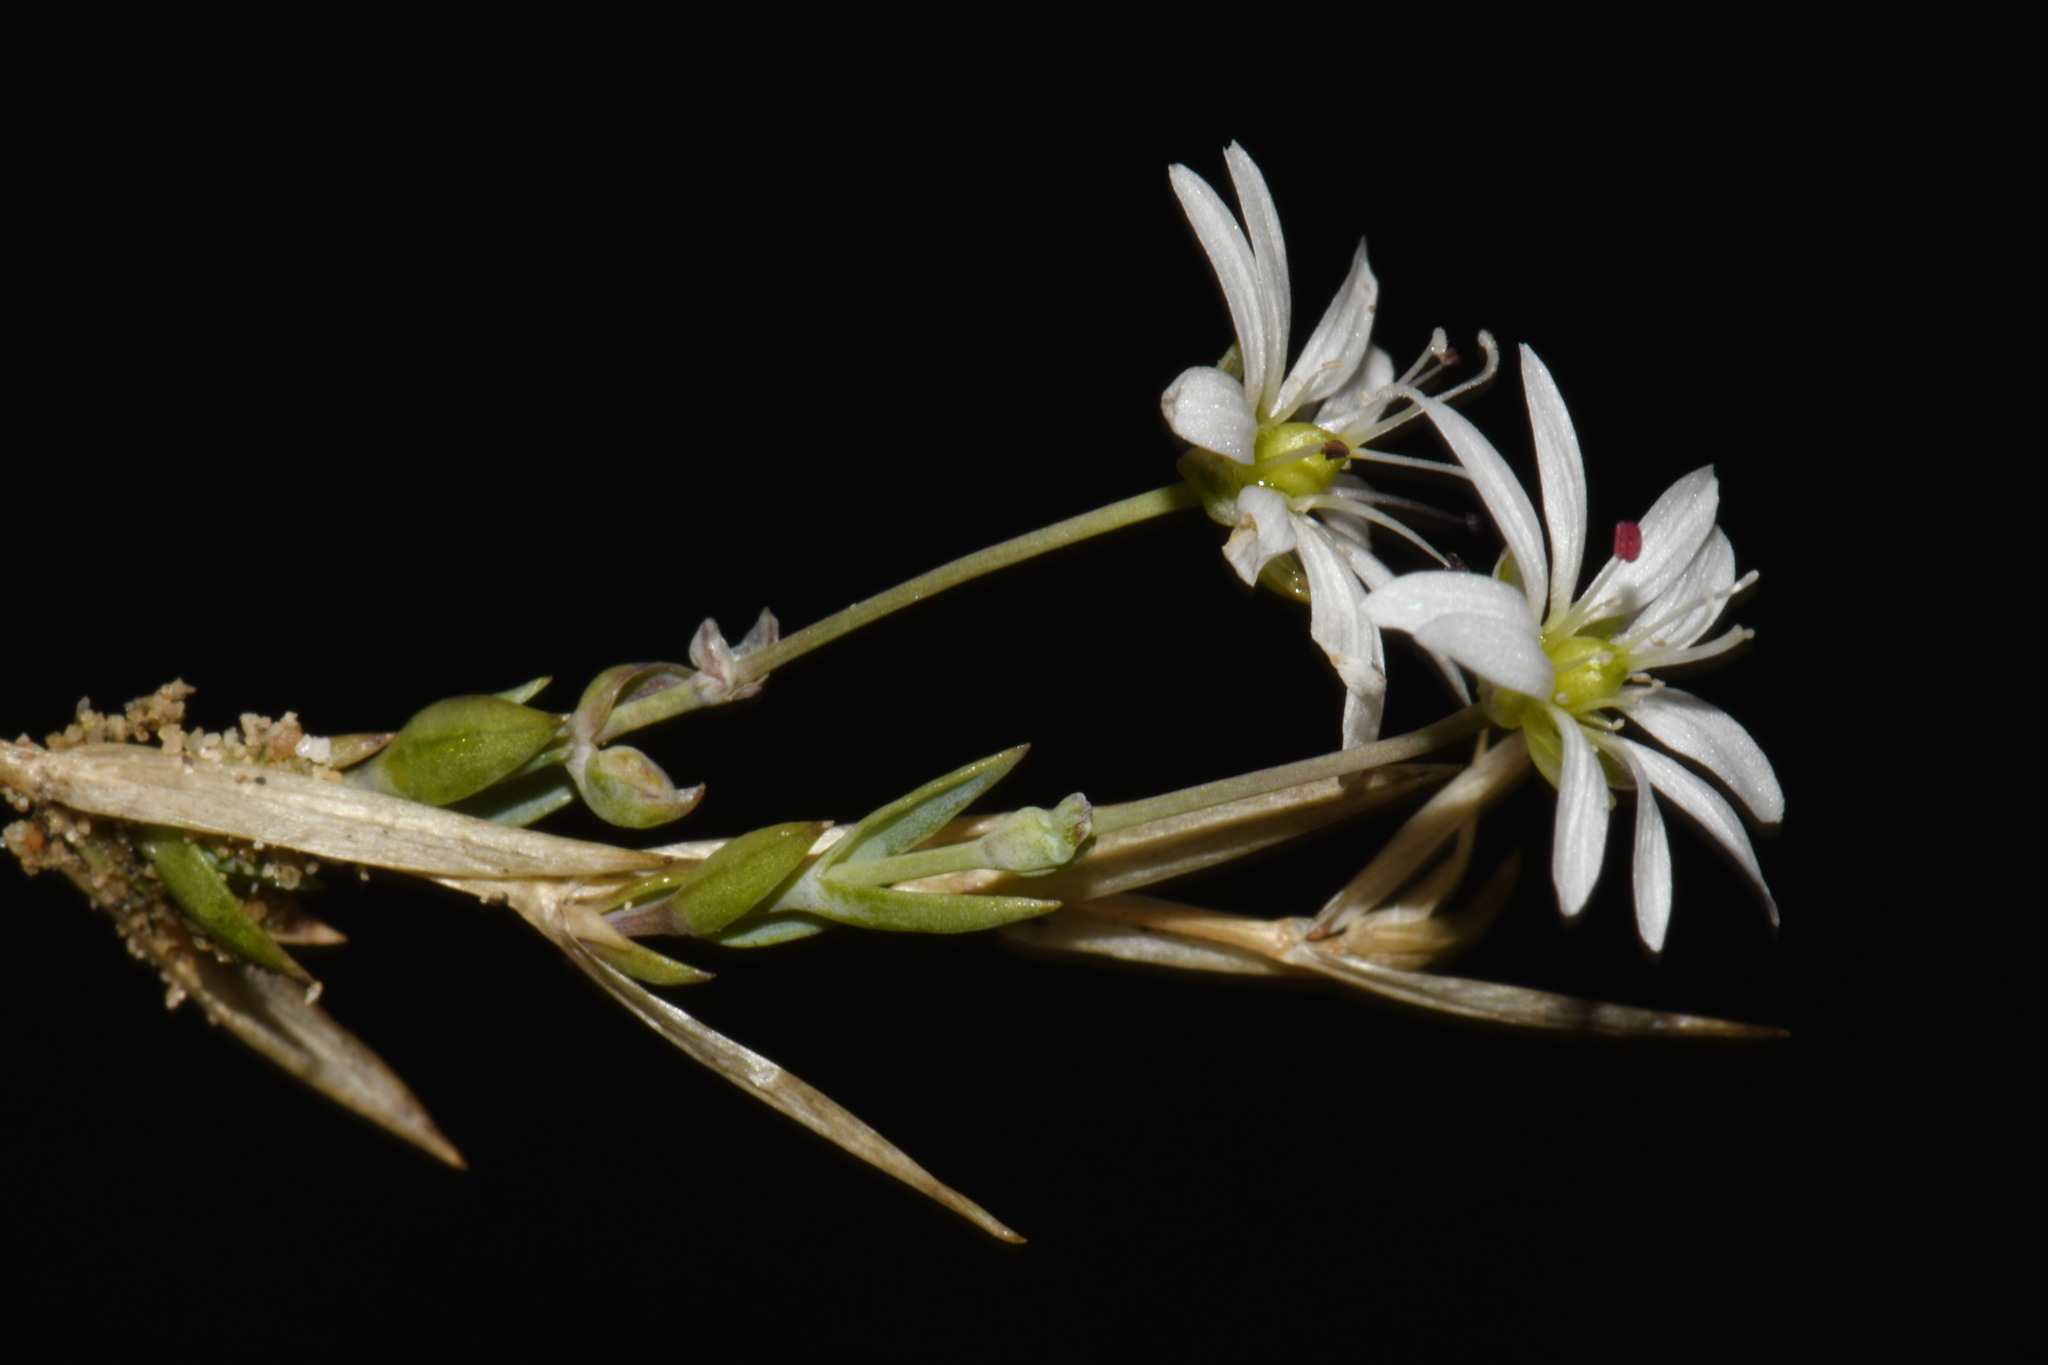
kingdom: Plantae
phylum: Tracheophyta
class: Magnoliopsida
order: Caryophyllales
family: Caryophyllaceae
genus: Stellaria
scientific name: Stellaria longipes
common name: Goldie's starwort
